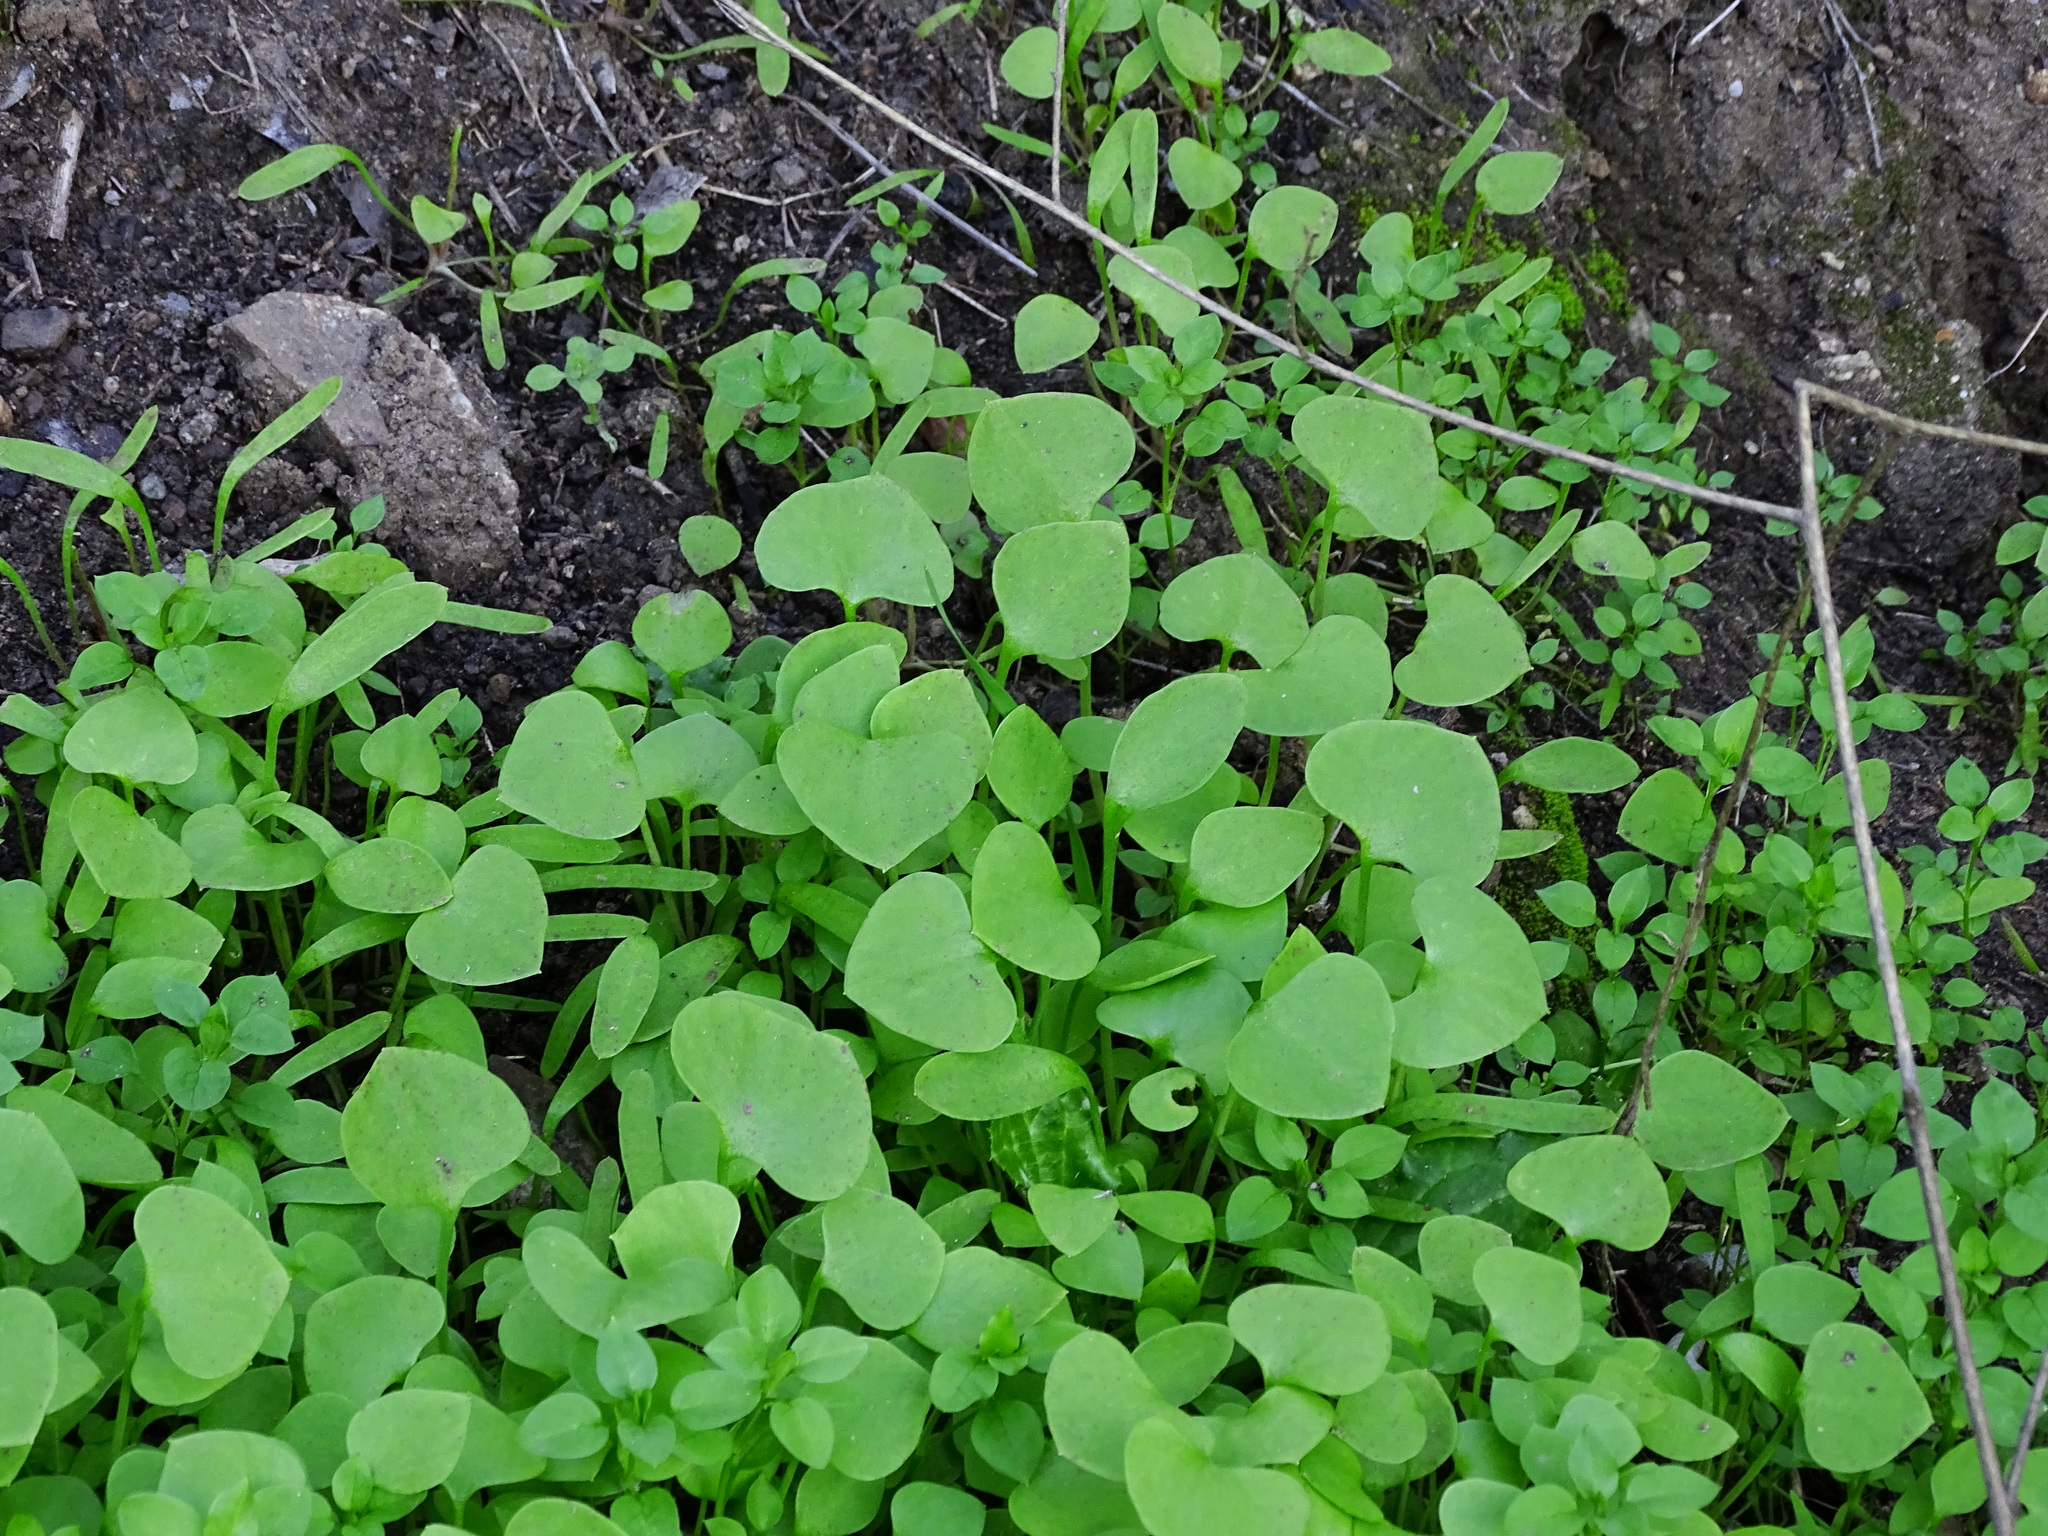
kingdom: Plantae
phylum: Tracheophyta
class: Magnoliopsida
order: Caryophyllales
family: Montiaceae
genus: Claytonia
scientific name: Claytonia perfoliata
